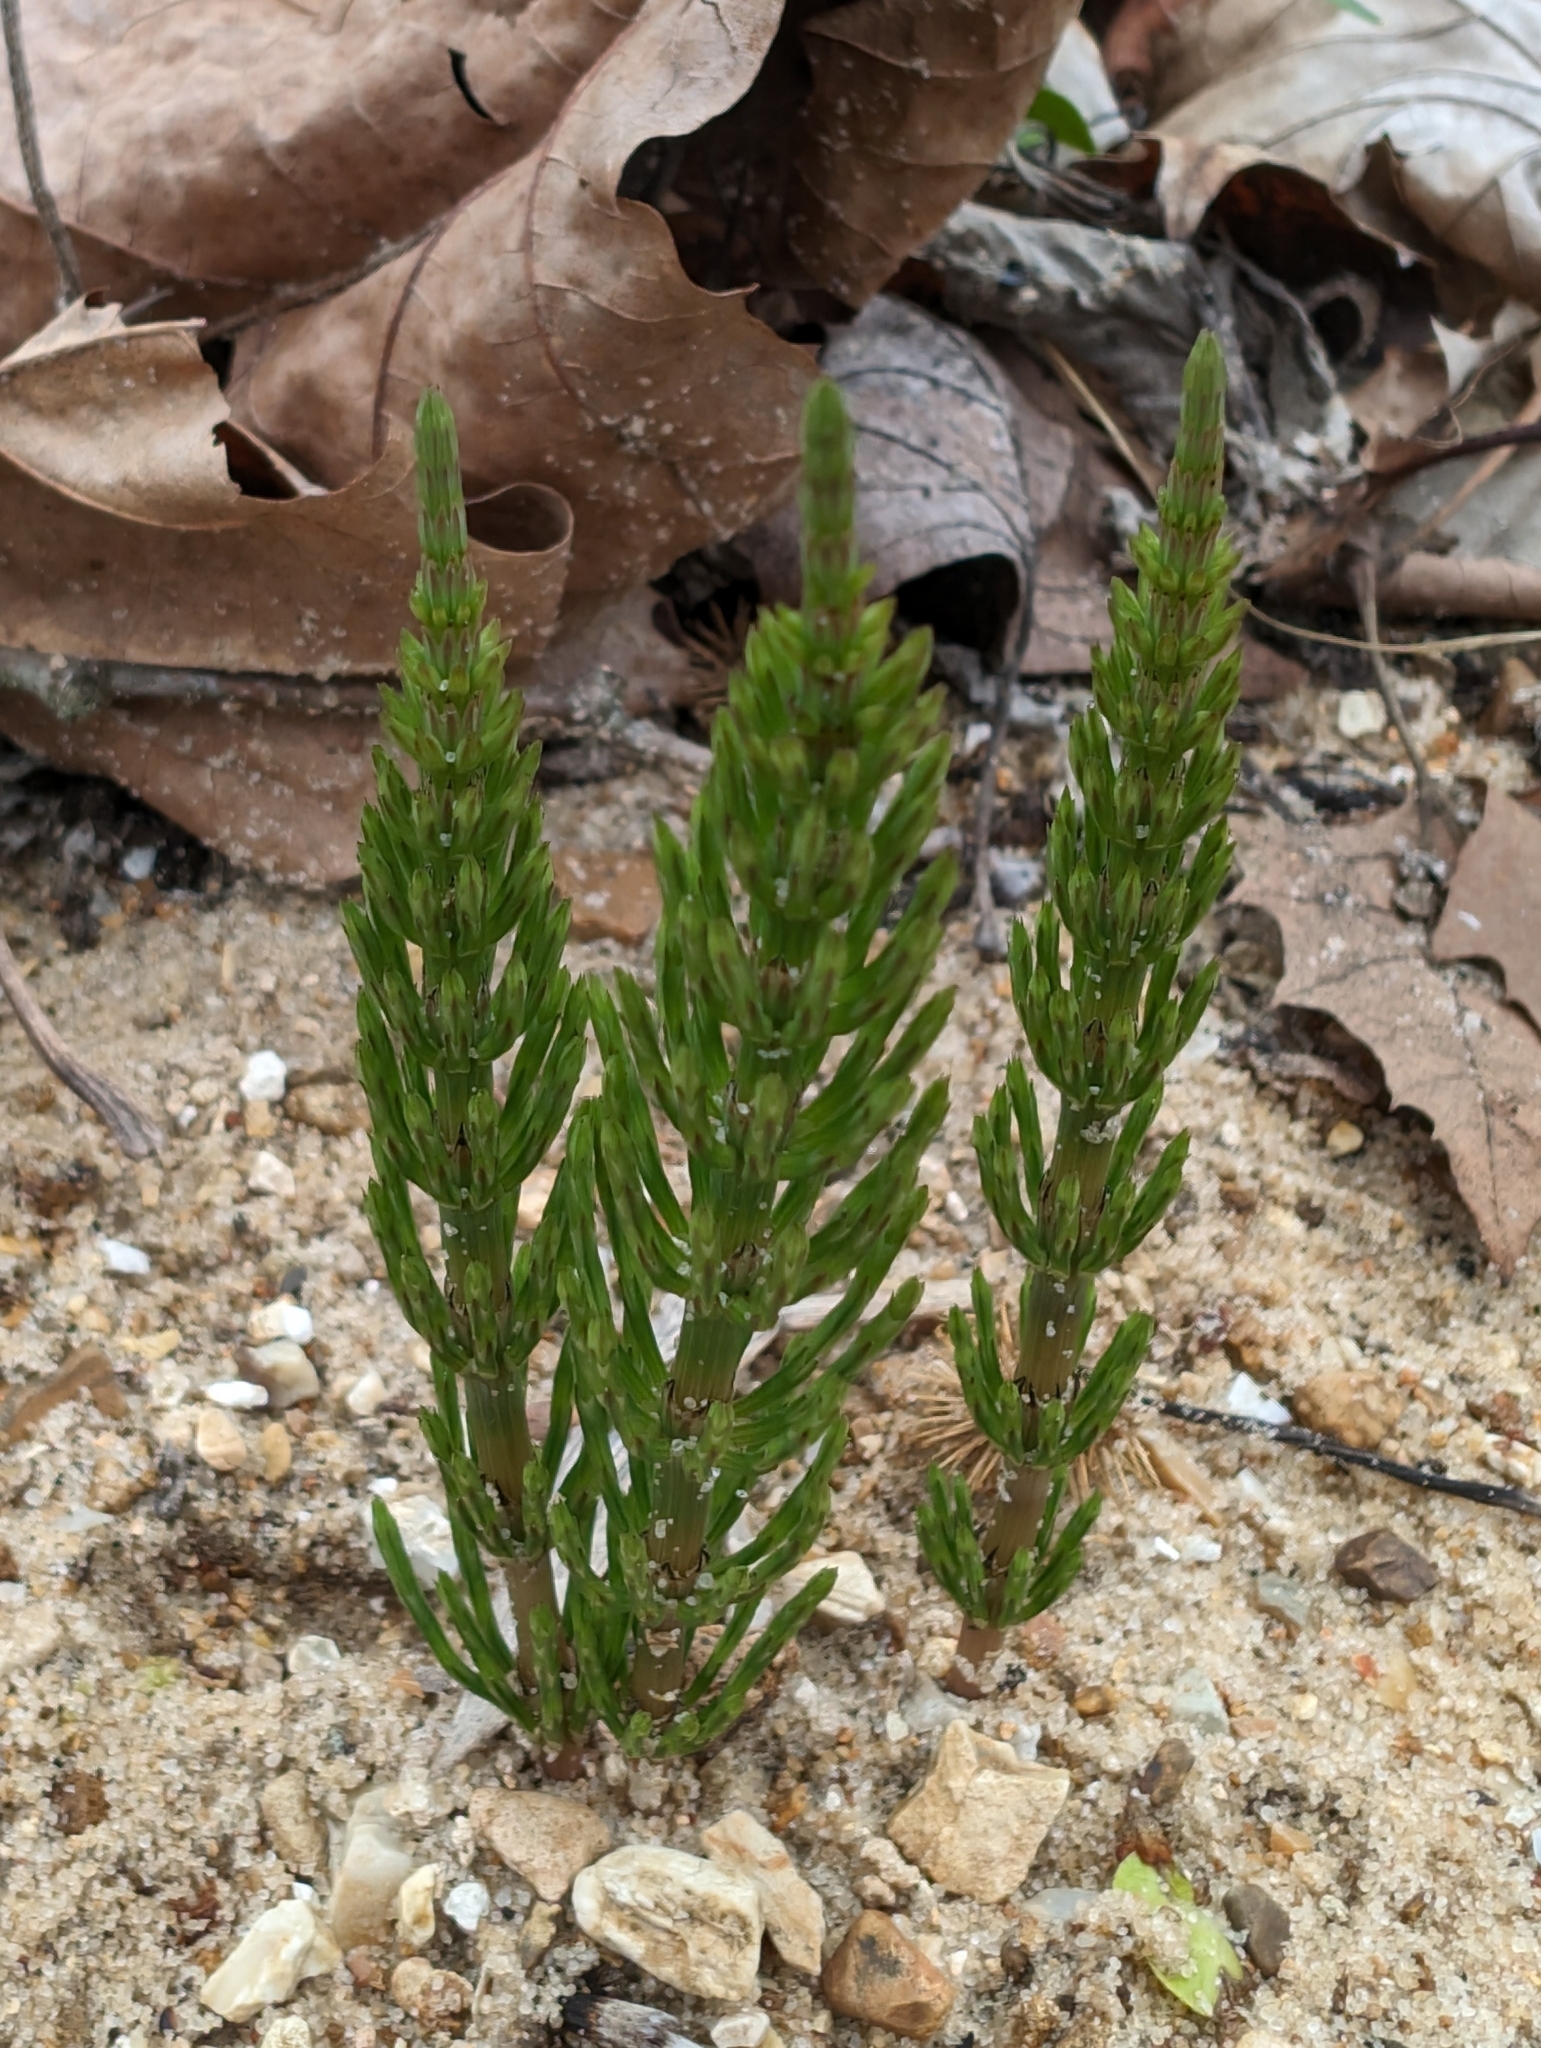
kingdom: Plantae
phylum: Tracheophyta
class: Polypodiopsida
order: Equisetales
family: Equisetaceae
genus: Equisetum
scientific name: Equisetum arvense
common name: Field horsetail
